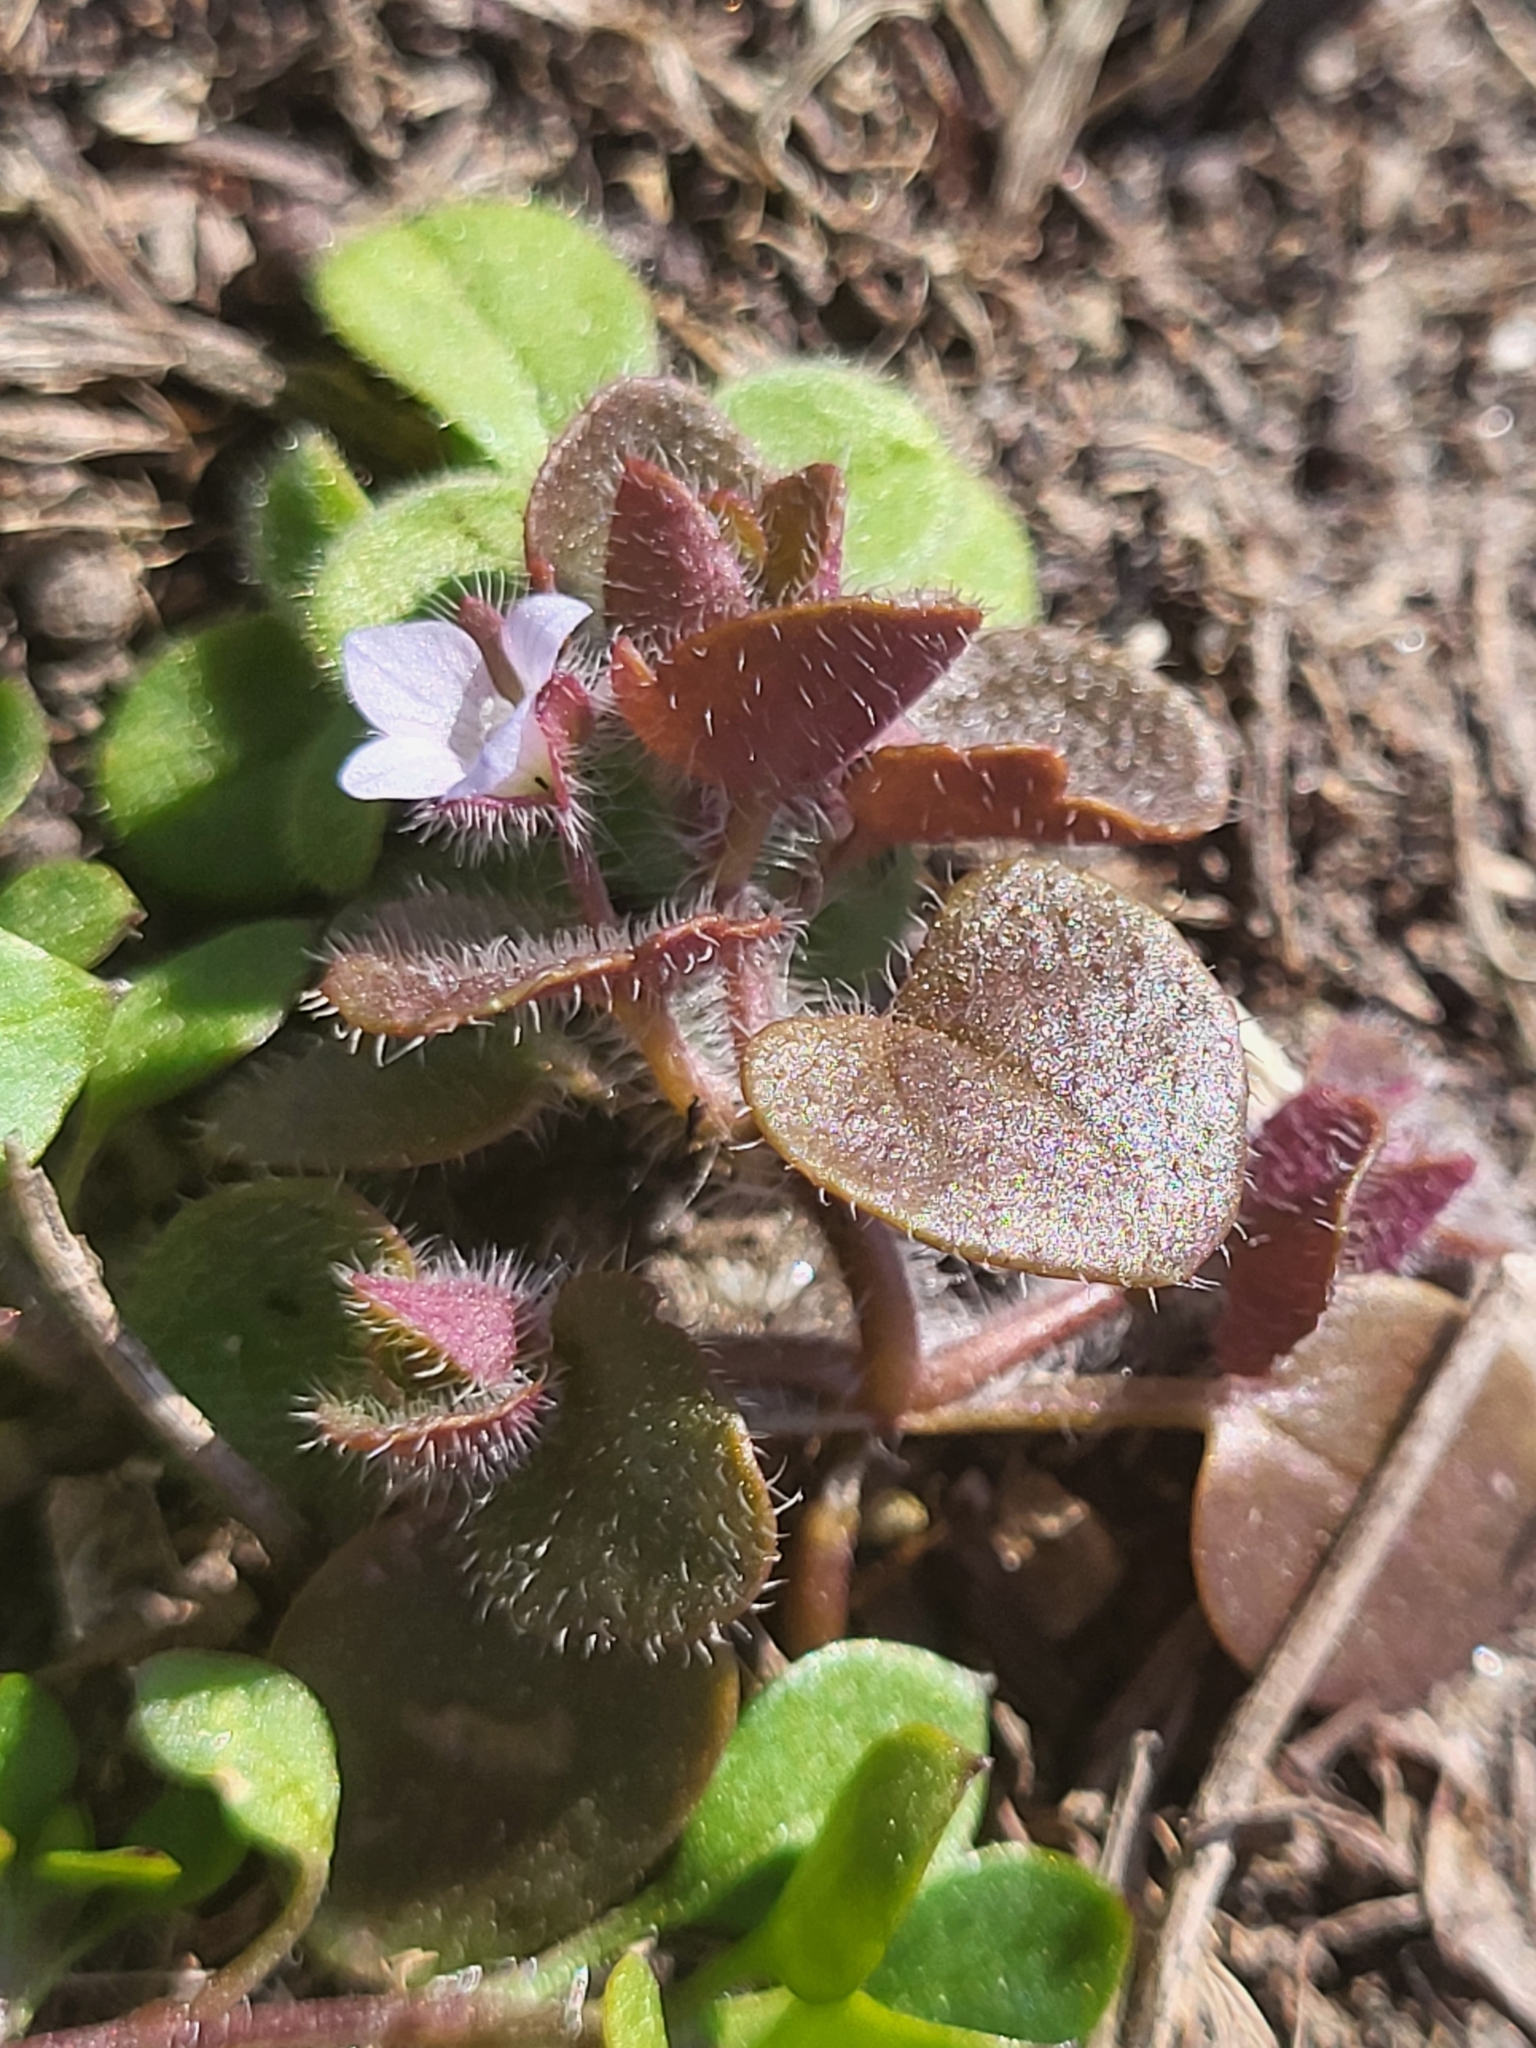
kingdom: Plantae
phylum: Tracheophyta
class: Magnoliopsida
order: Lamiales
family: Plantaginaceae
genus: Veronica
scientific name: Veronica sublobata
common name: False ivy-leaved speedwell
